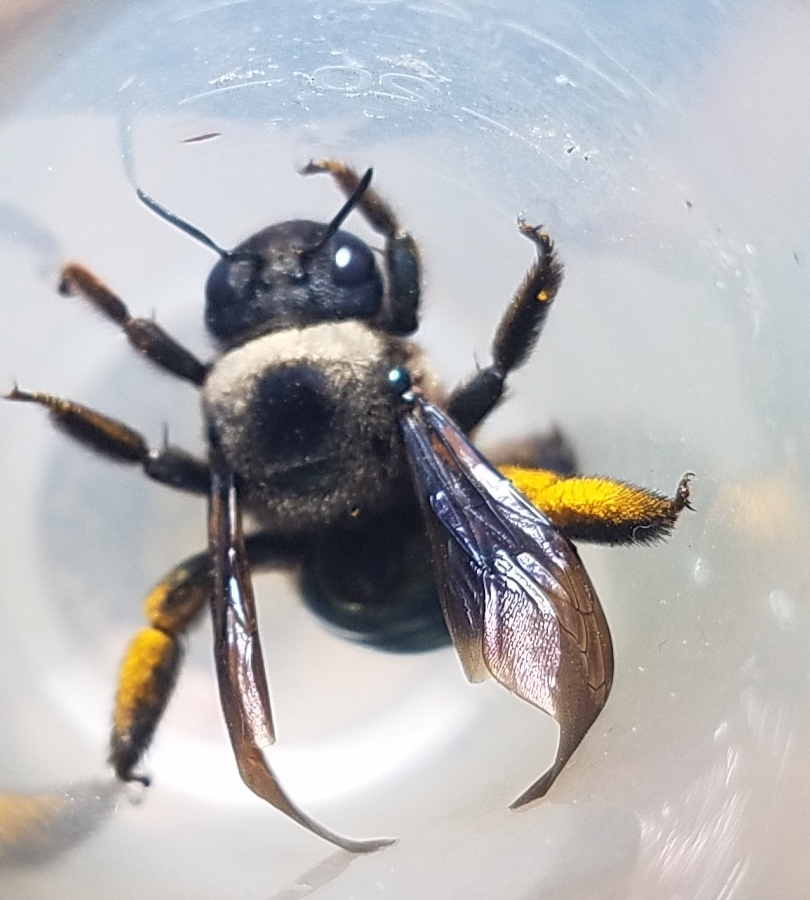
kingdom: Animalia
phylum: Arthropoda
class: Insecta
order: Hymenoptera
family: Apidae
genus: Xylocopa
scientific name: Xylocopa californica
